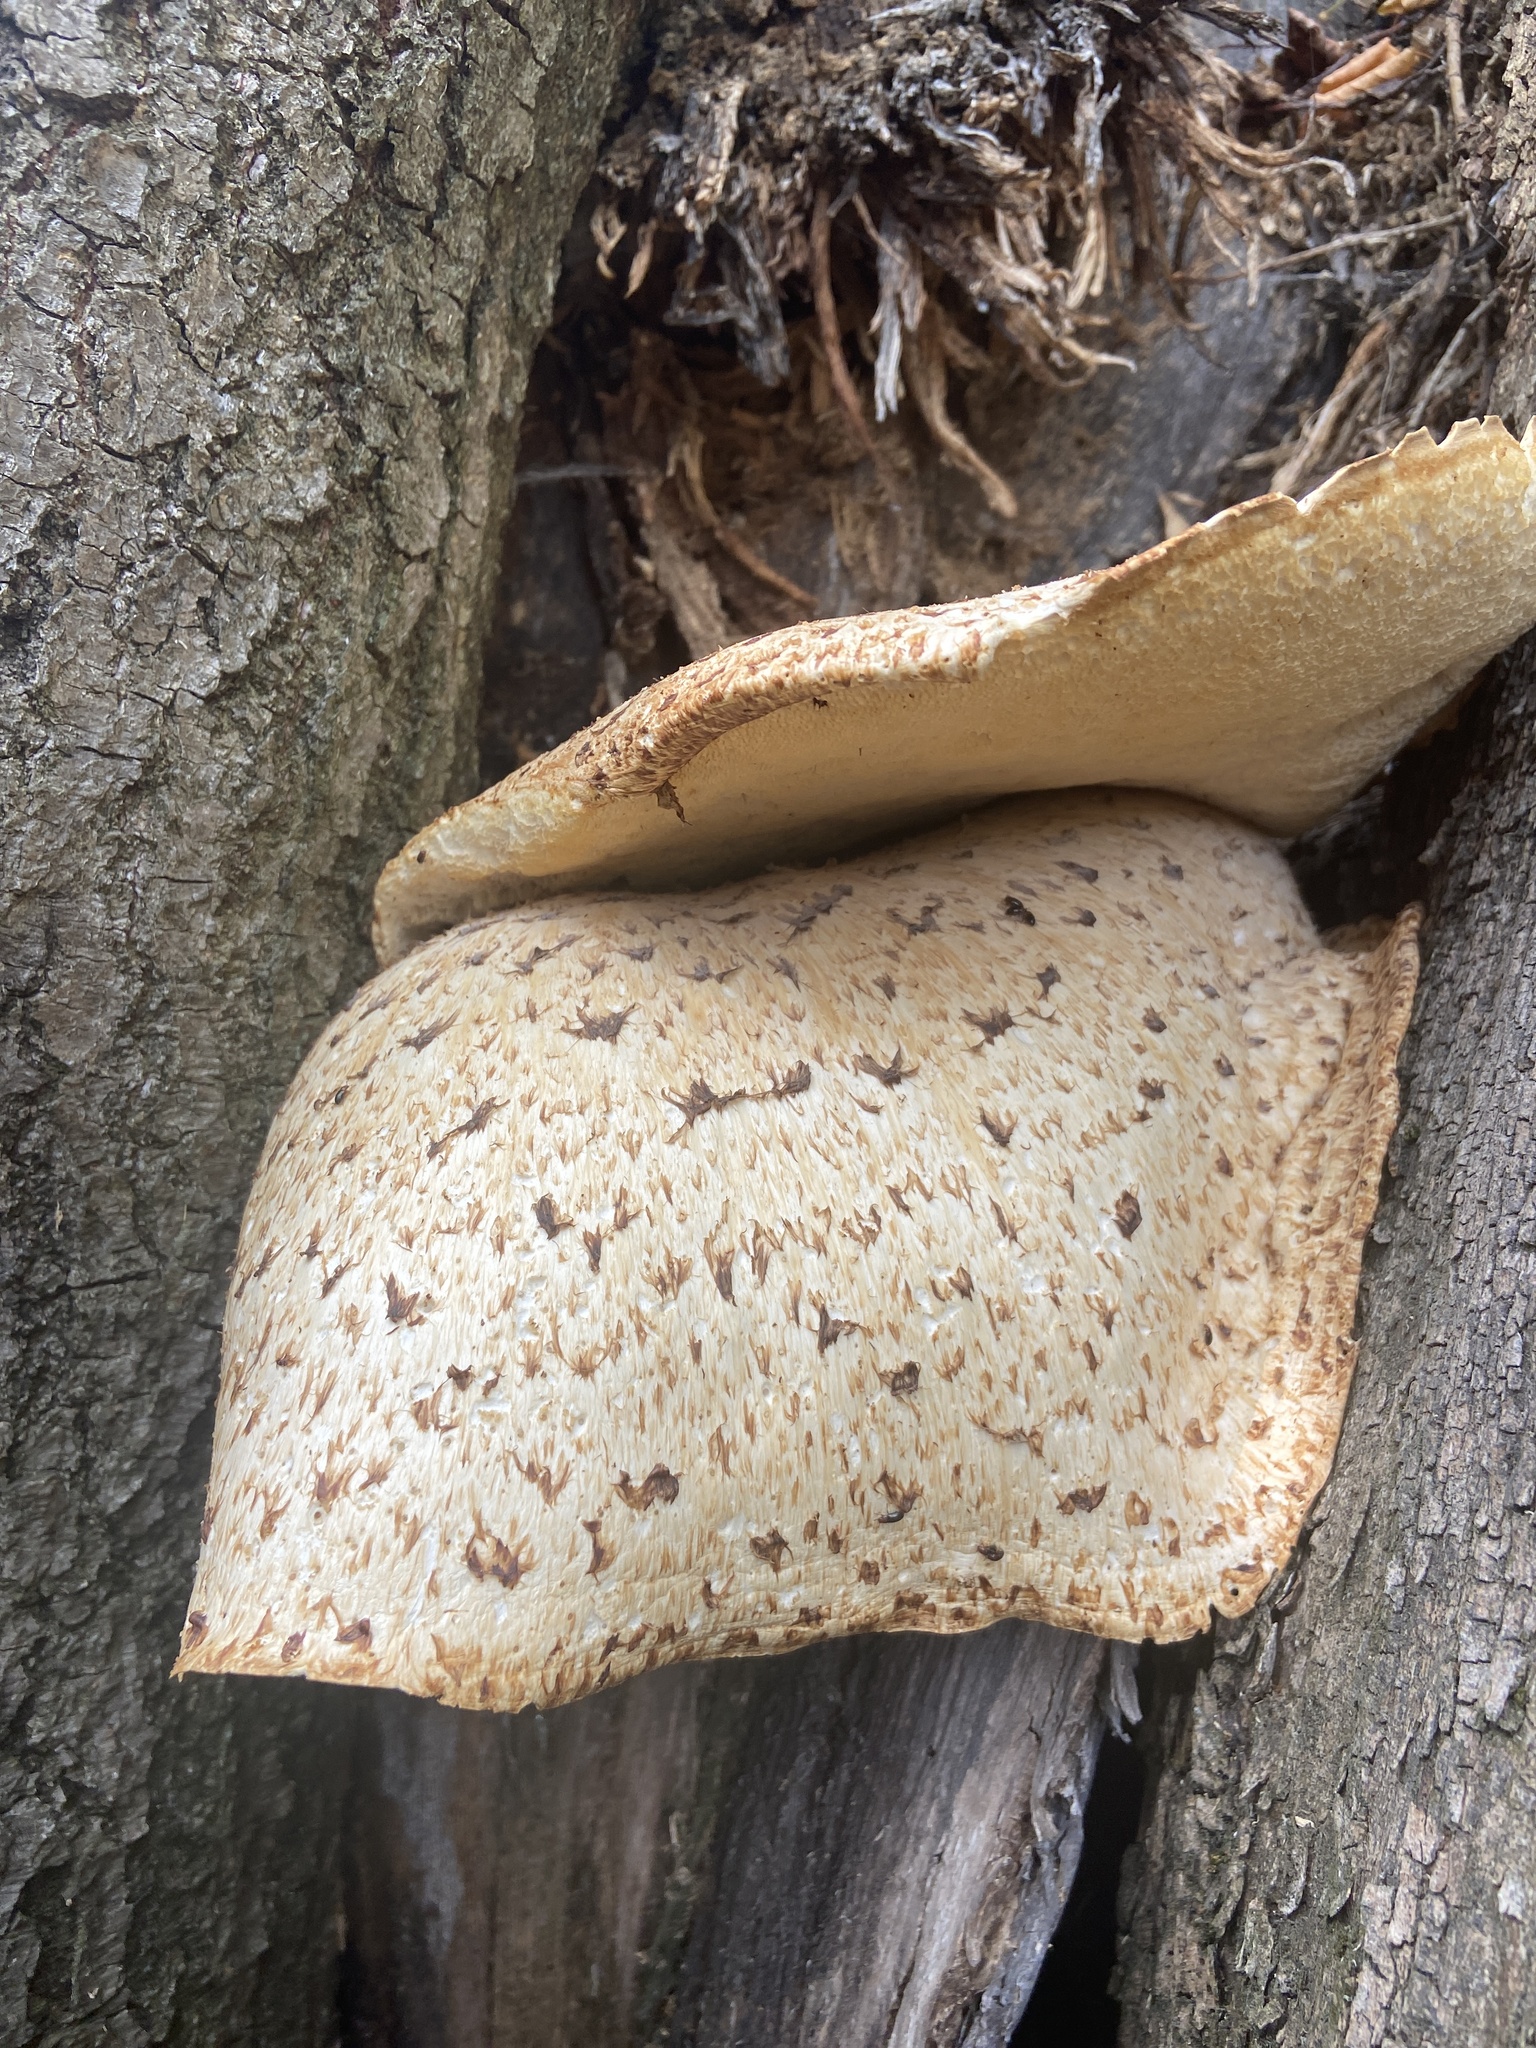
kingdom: Fungi
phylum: Basidiomycota
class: Agaricomycetes
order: Polyporales
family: Polyporaceae
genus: Cerioporus
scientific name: Cerioporus squamosus
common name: Dryad's saddle
